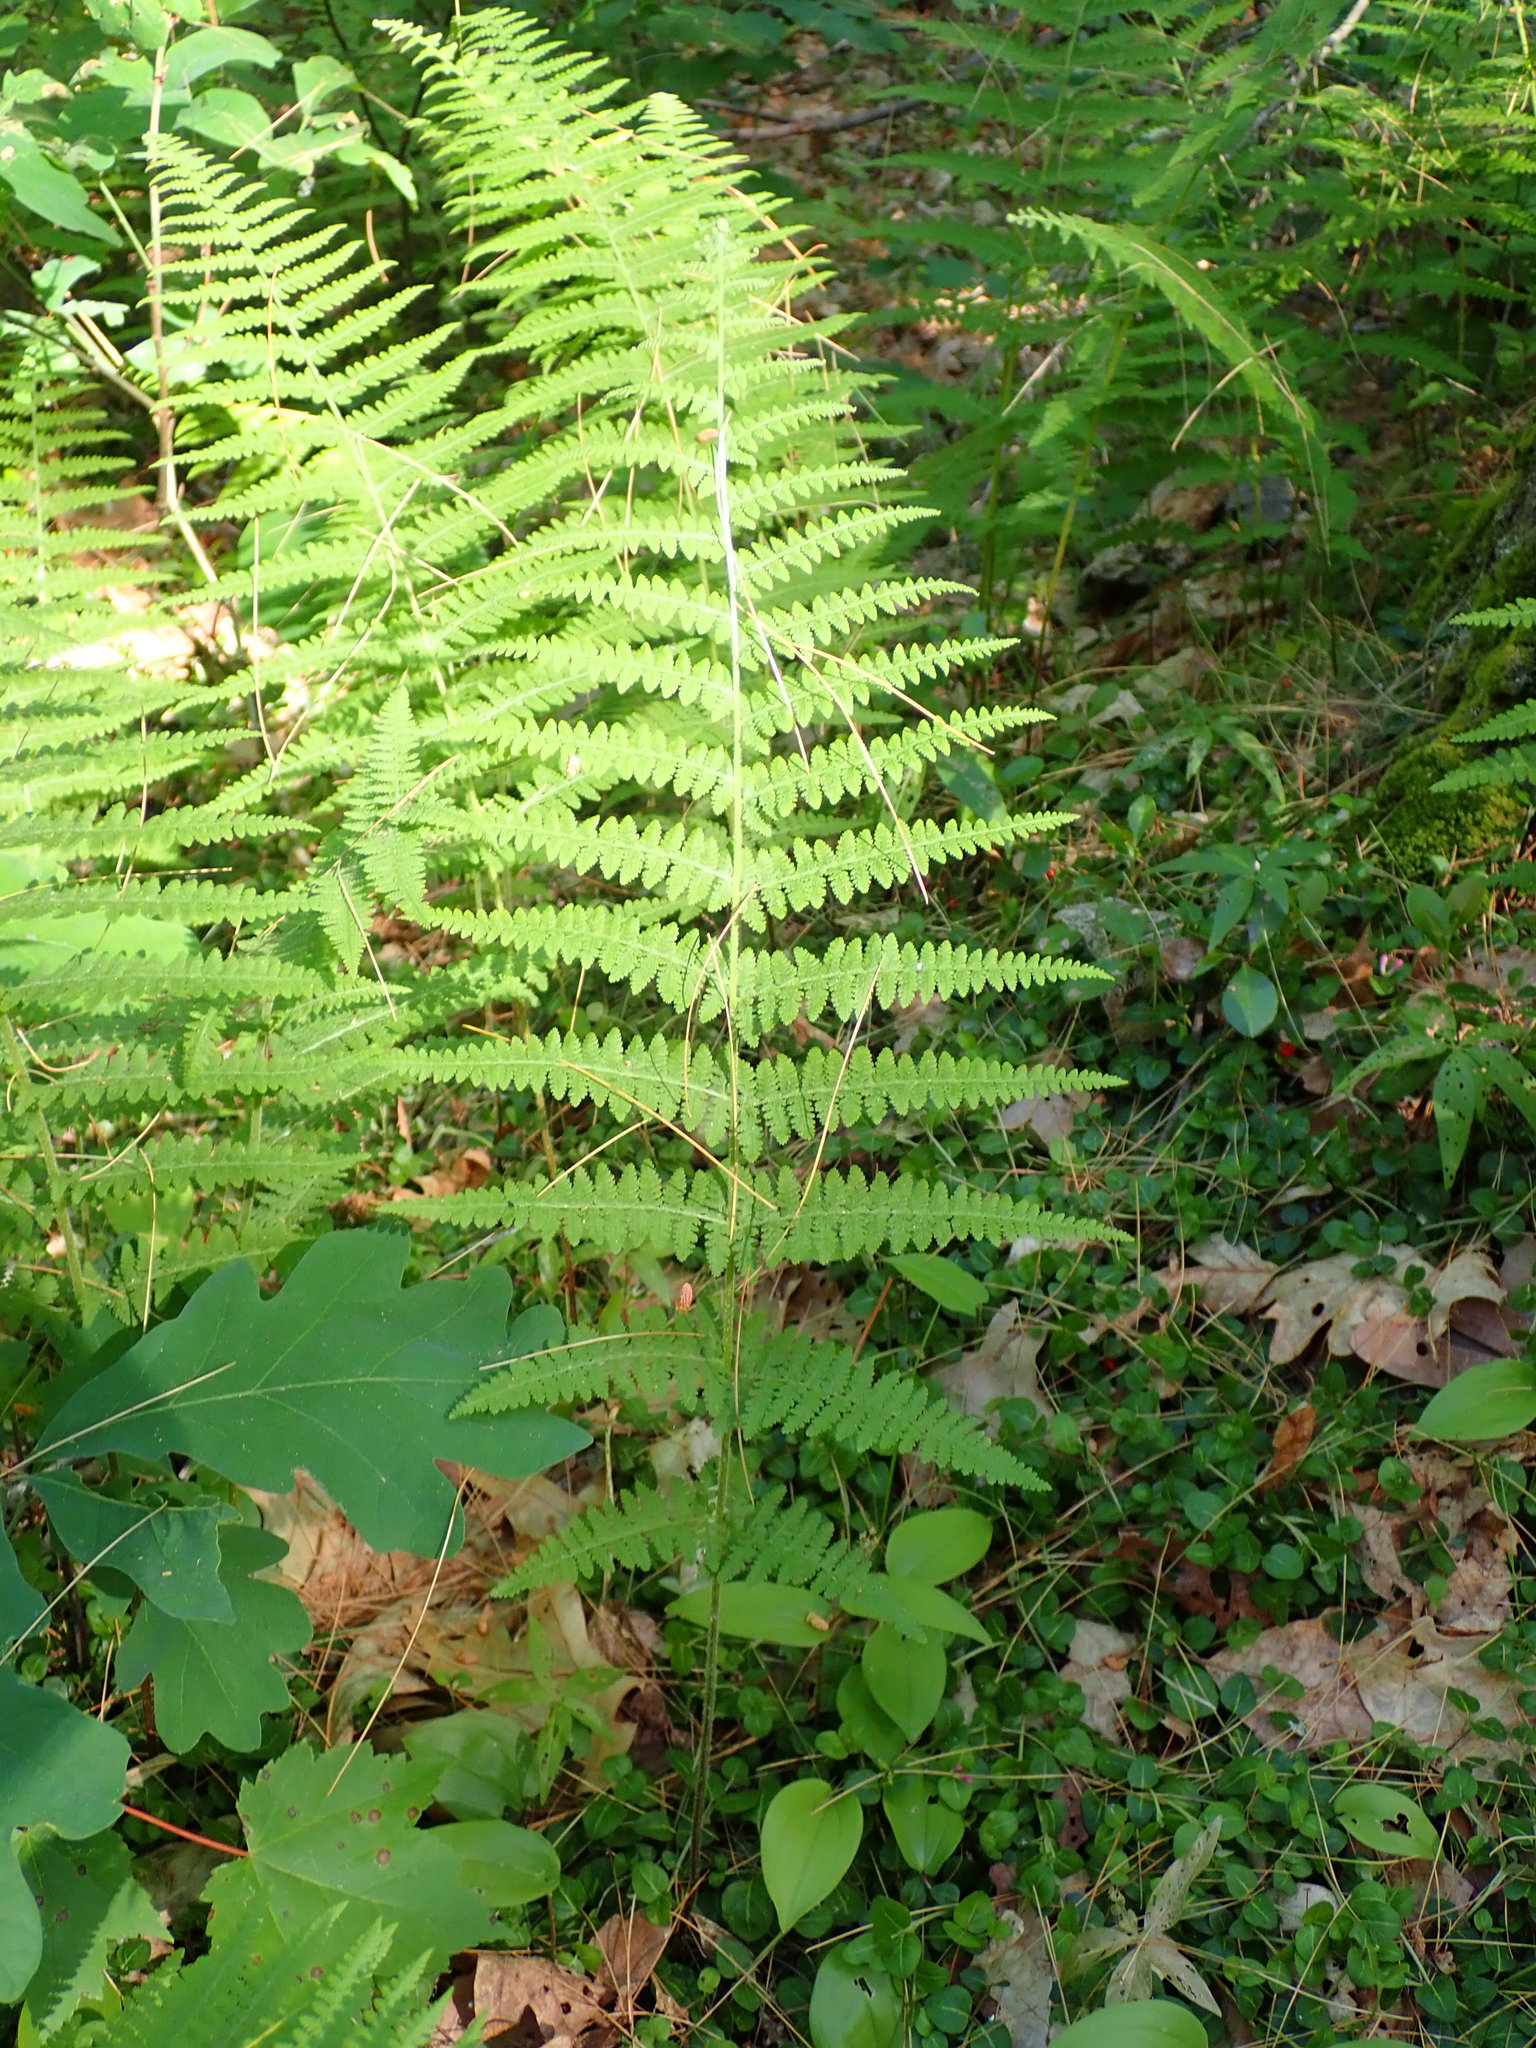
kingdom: Plantae
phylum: Tracheophyta
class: Polypodiopsida
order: Polypodiales
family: Dennstaedtiaceae
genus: Sitobolium
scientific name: Sitobolium punctilobum
